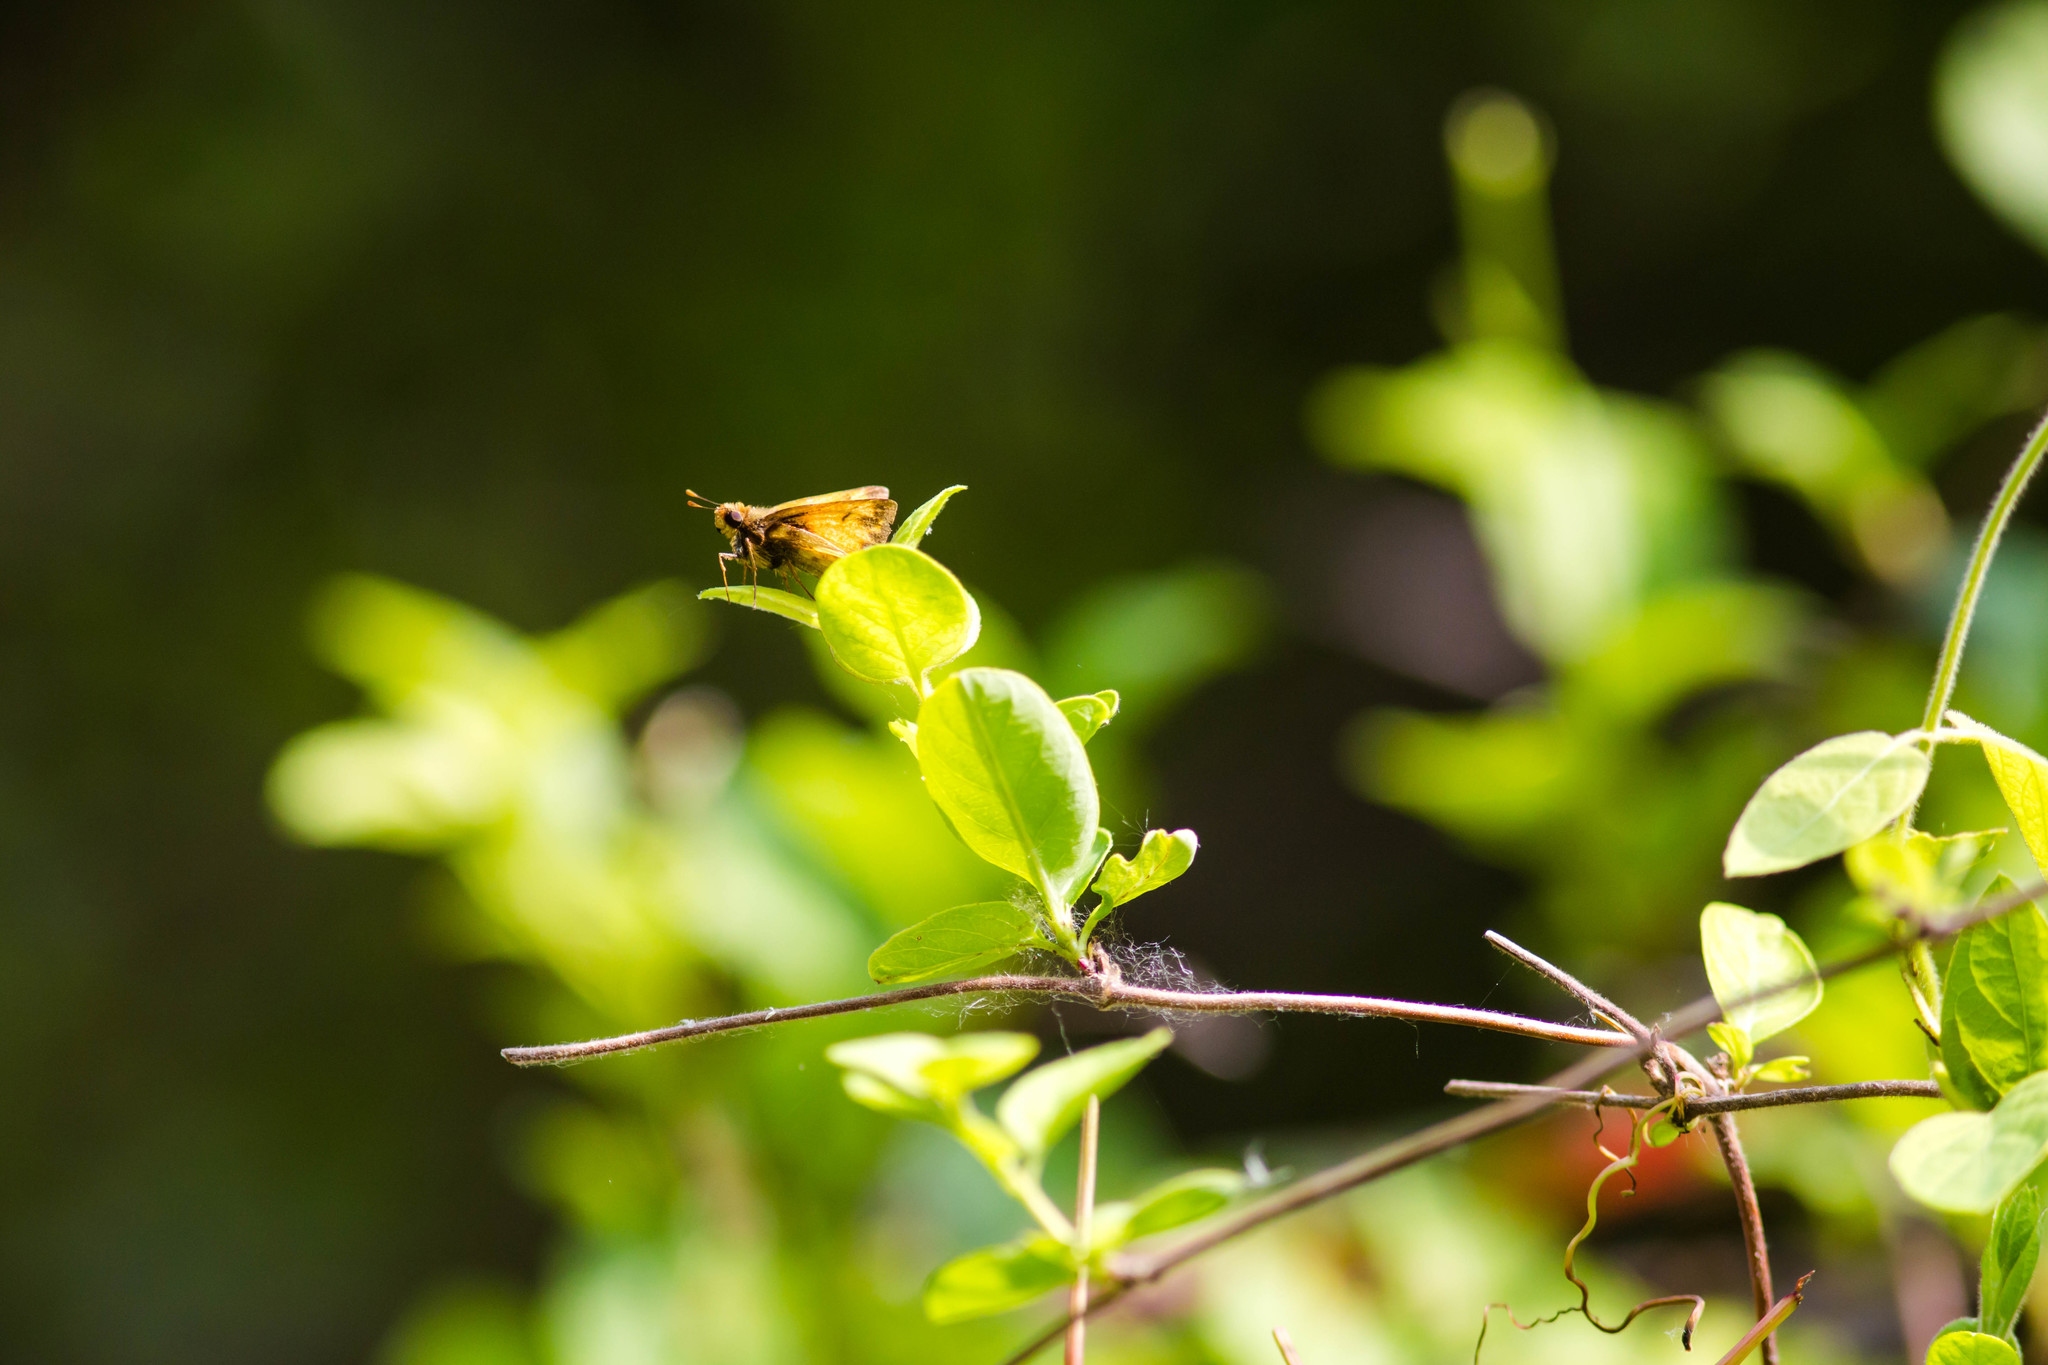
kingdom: Animalia
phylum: Arthropoda
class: Insecta
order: Lepidoptera
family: Hesperiidae
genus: Lon
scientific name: Lon zabulon
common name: Zabulon skipper
